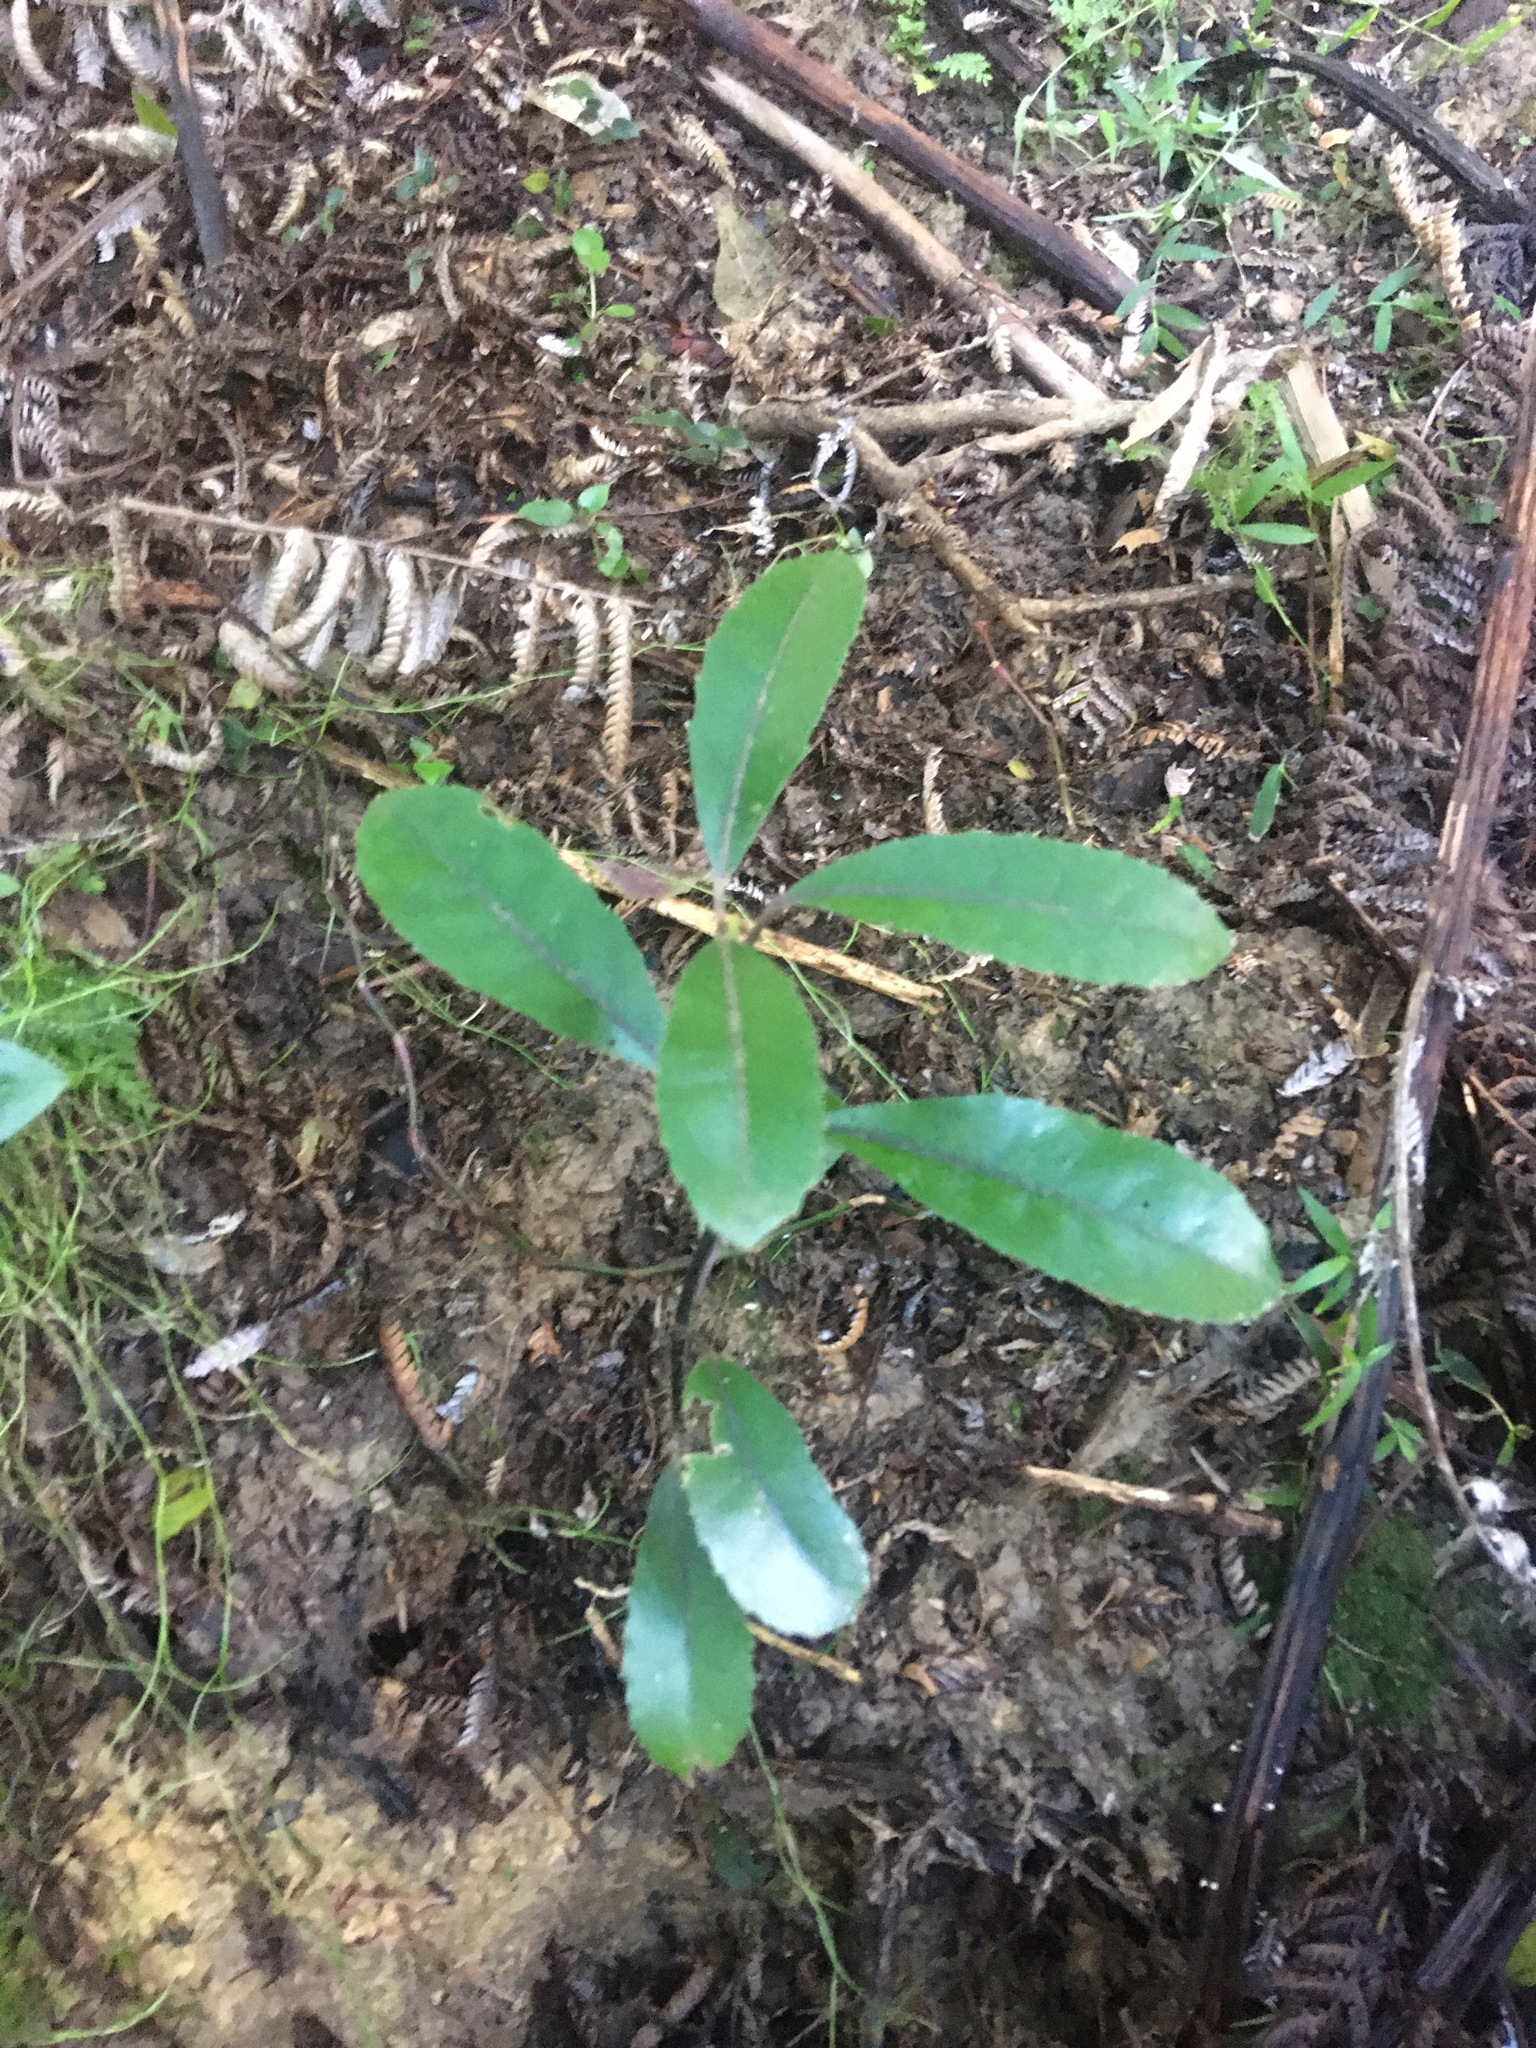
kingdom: Plantae
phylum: Tracheophyta
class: Magnoliopsida
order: Laurales
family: Monimiaceae
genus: Hedycarya
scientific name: Hedycarya arborea
